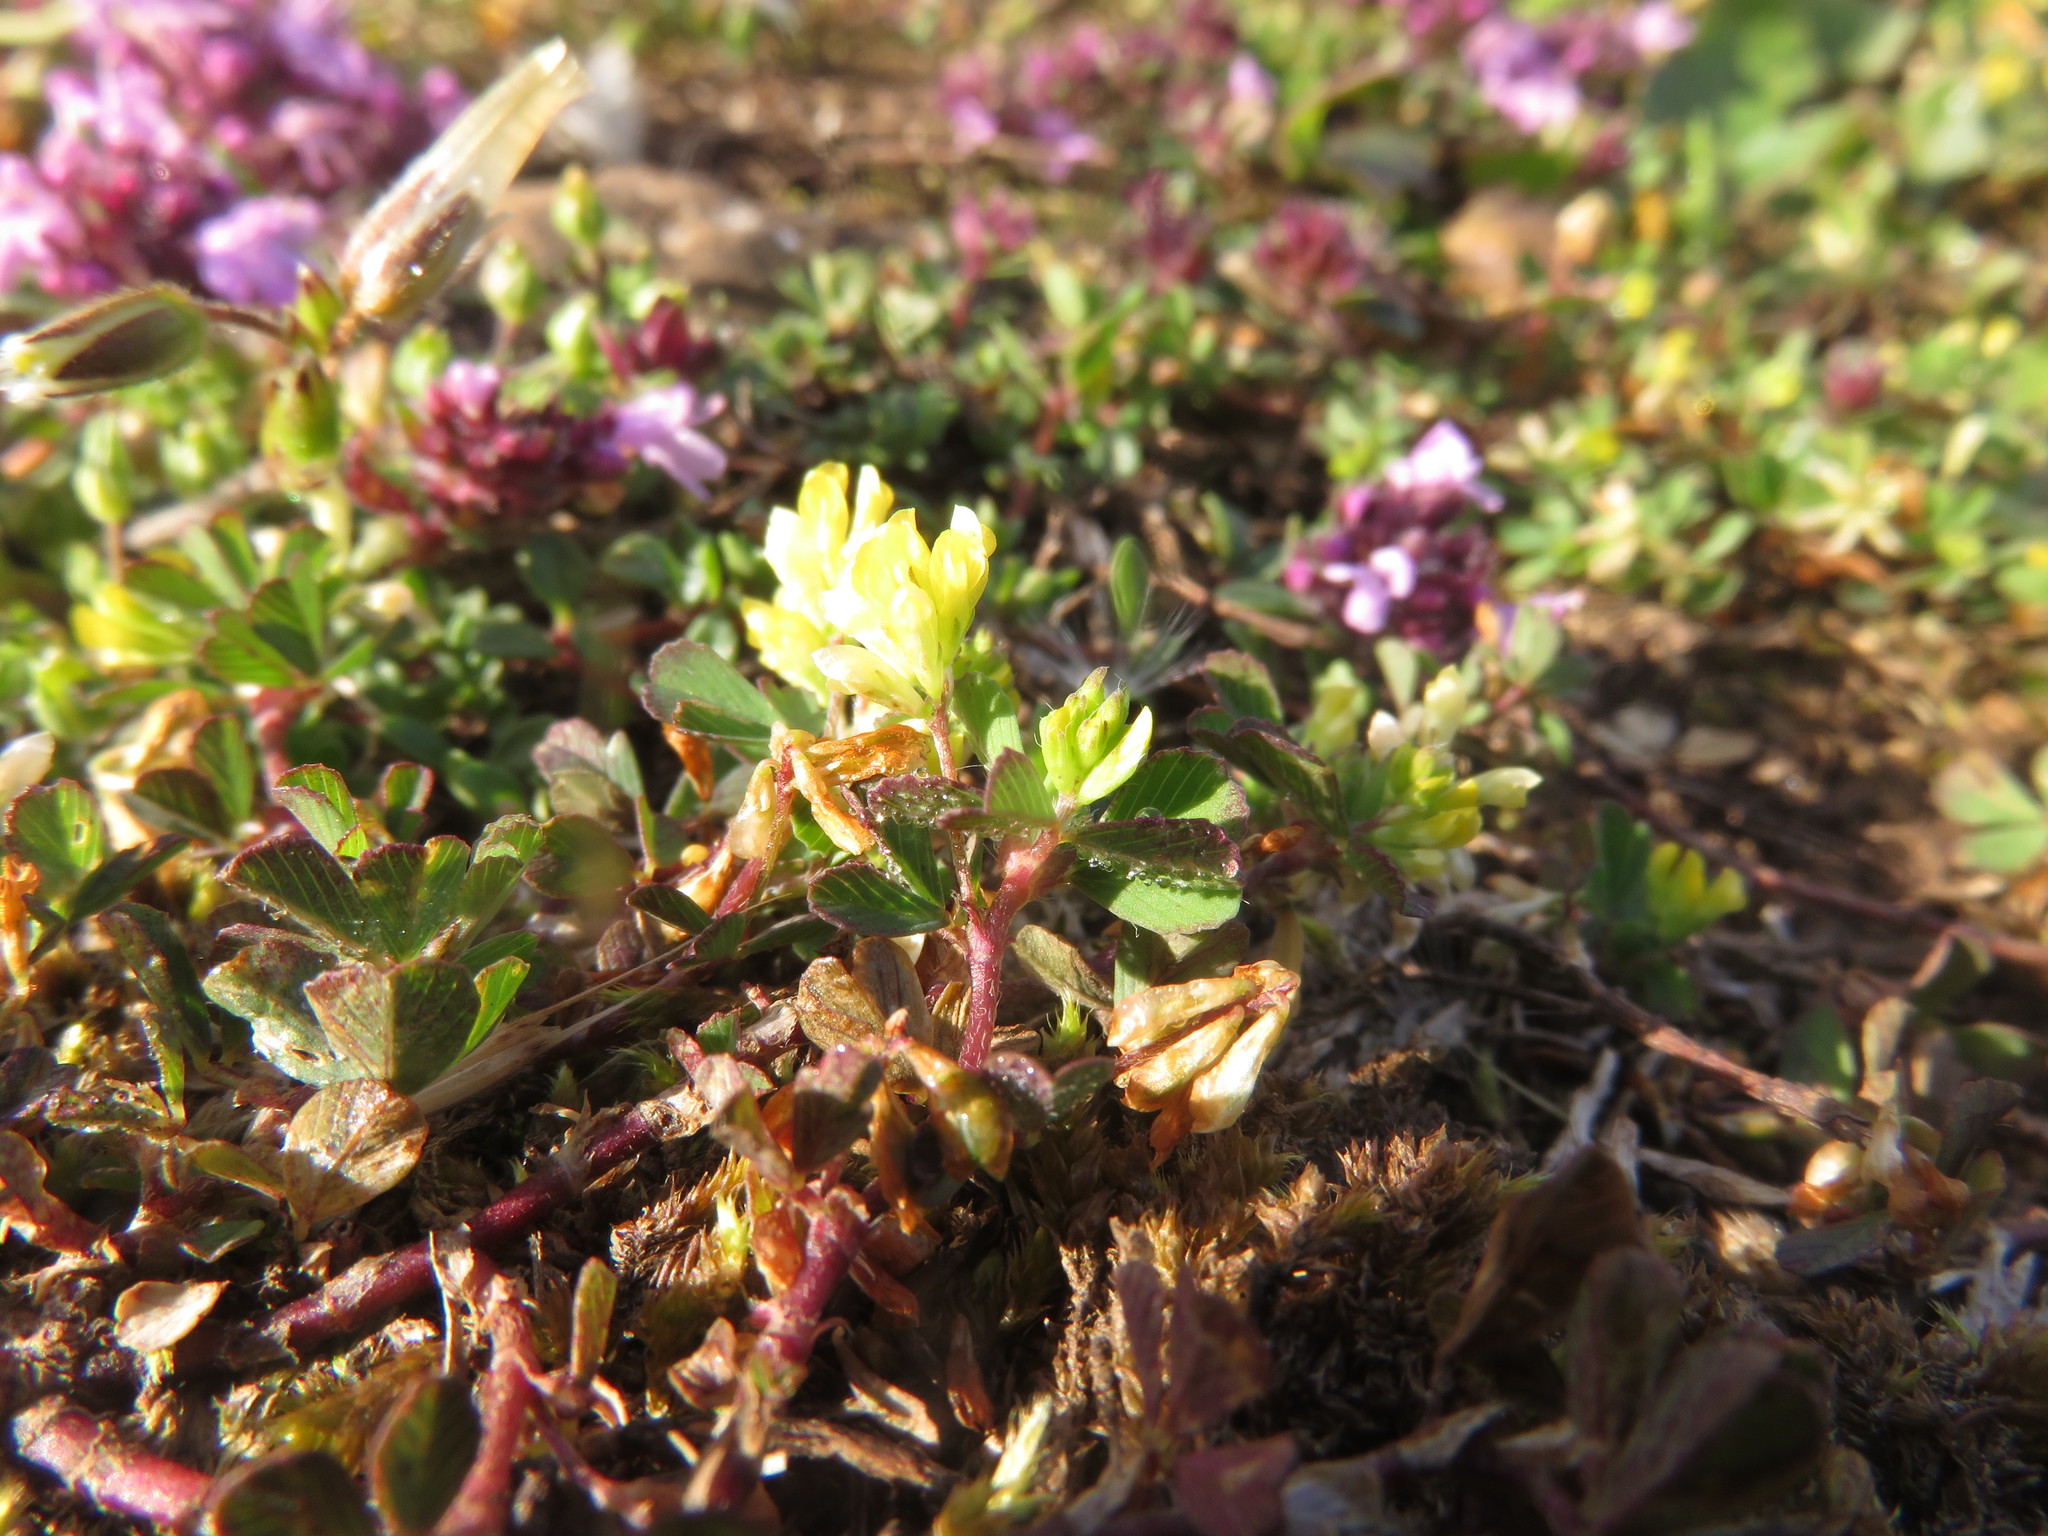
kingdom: Plantae
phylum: Tracheophyta
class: Magnoliopsida
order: Fabales
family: Fabaceae
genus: Trifolium
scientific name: Trifolium dubium
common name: Suckling clover
